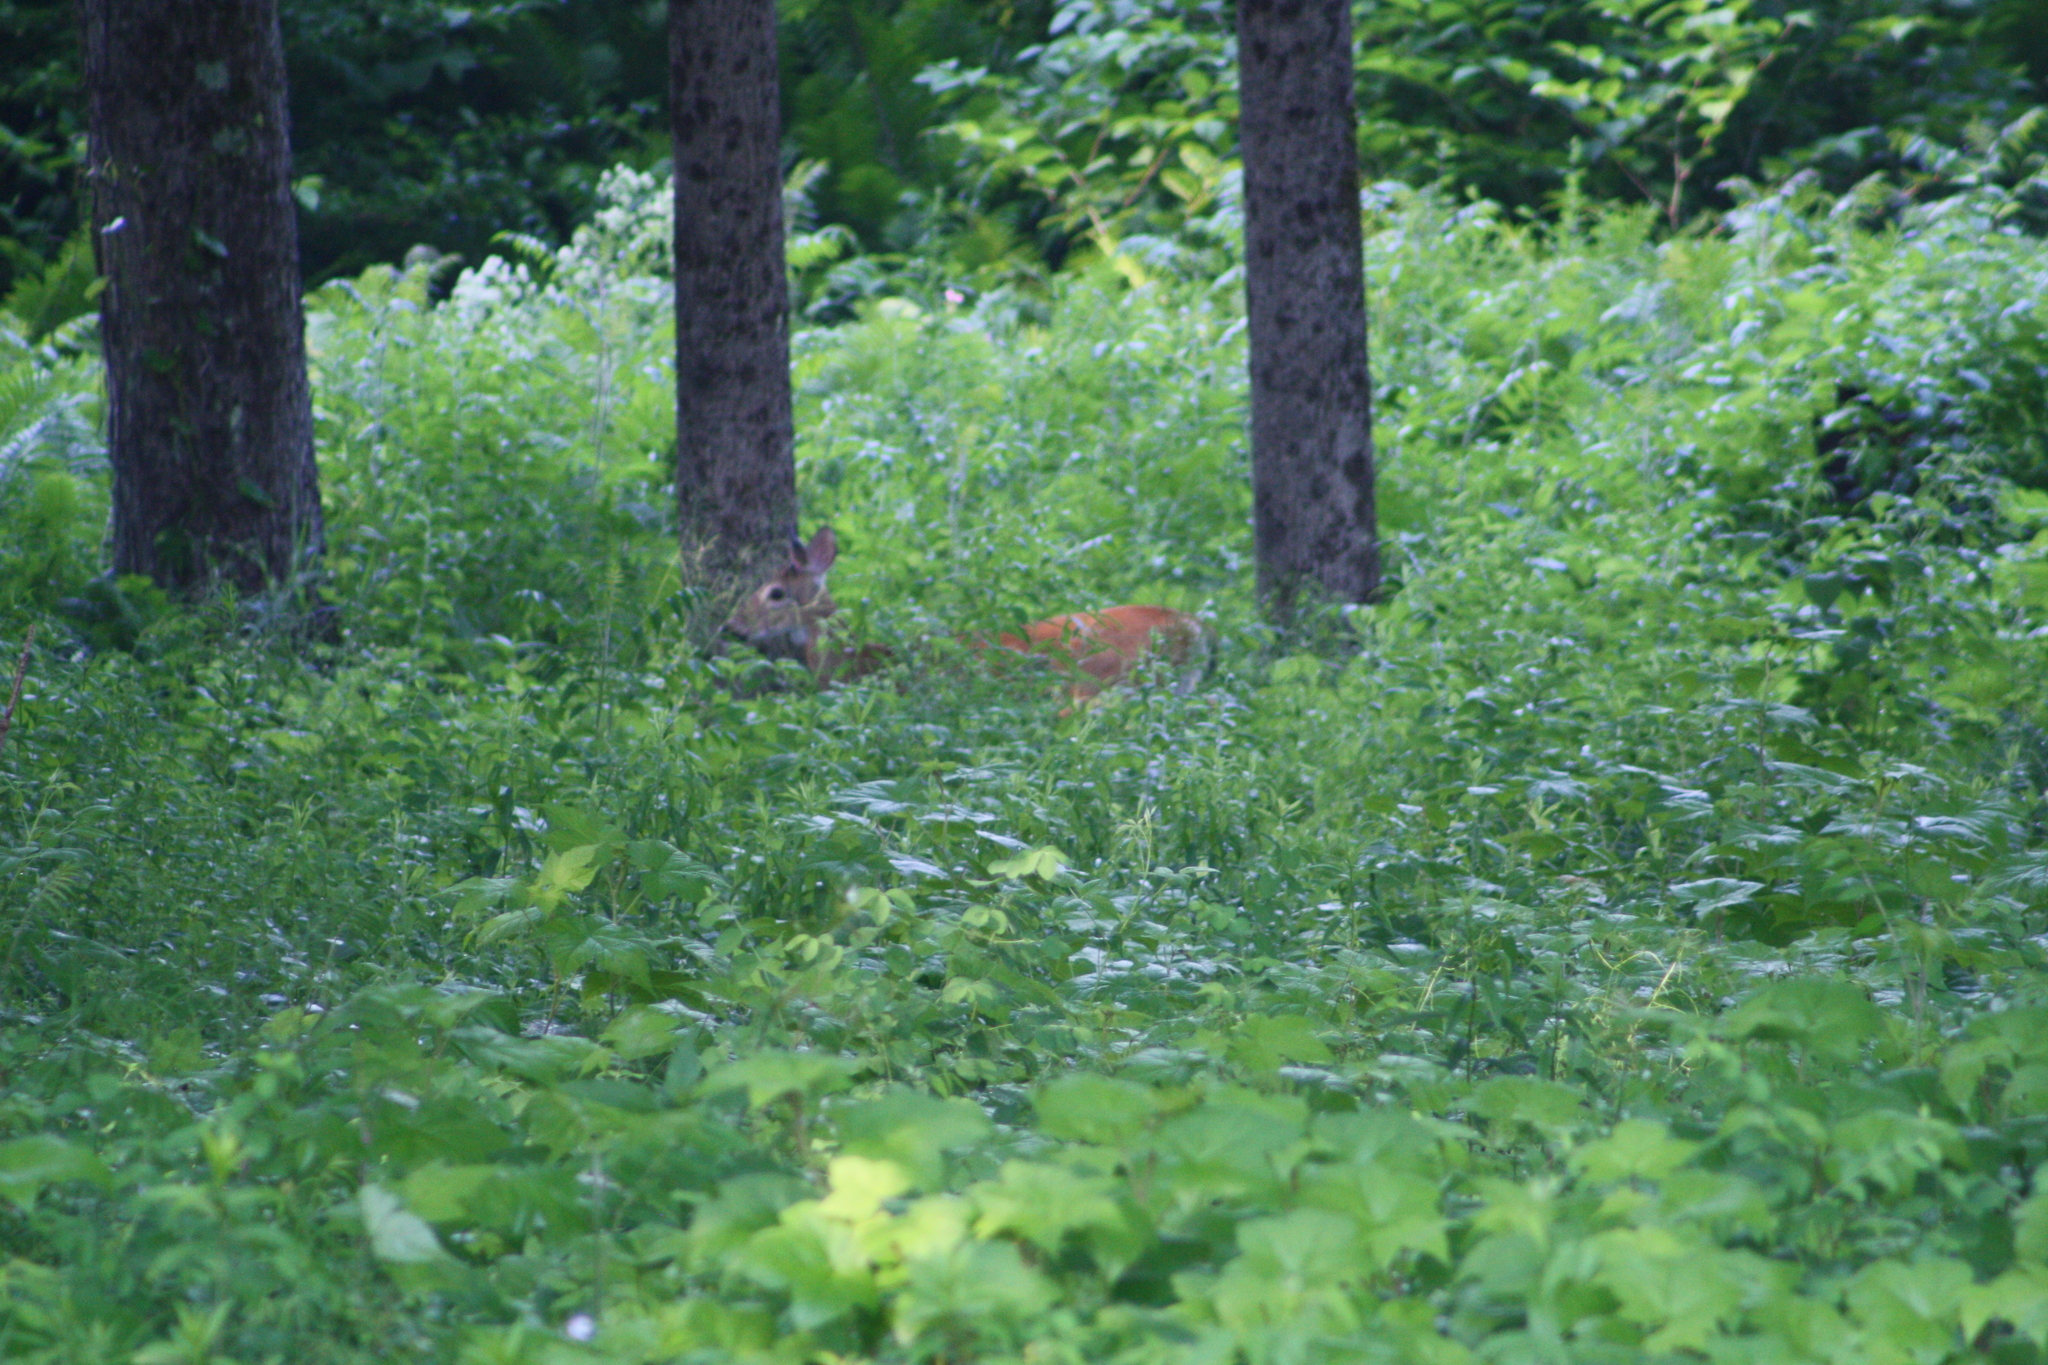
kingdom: Animalia
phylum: Chordata
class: Mammalia
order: Artiodactyla
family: Cervidae
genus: Odocoileus
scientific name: Odocoileus virginianus
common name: White-tailed deer
